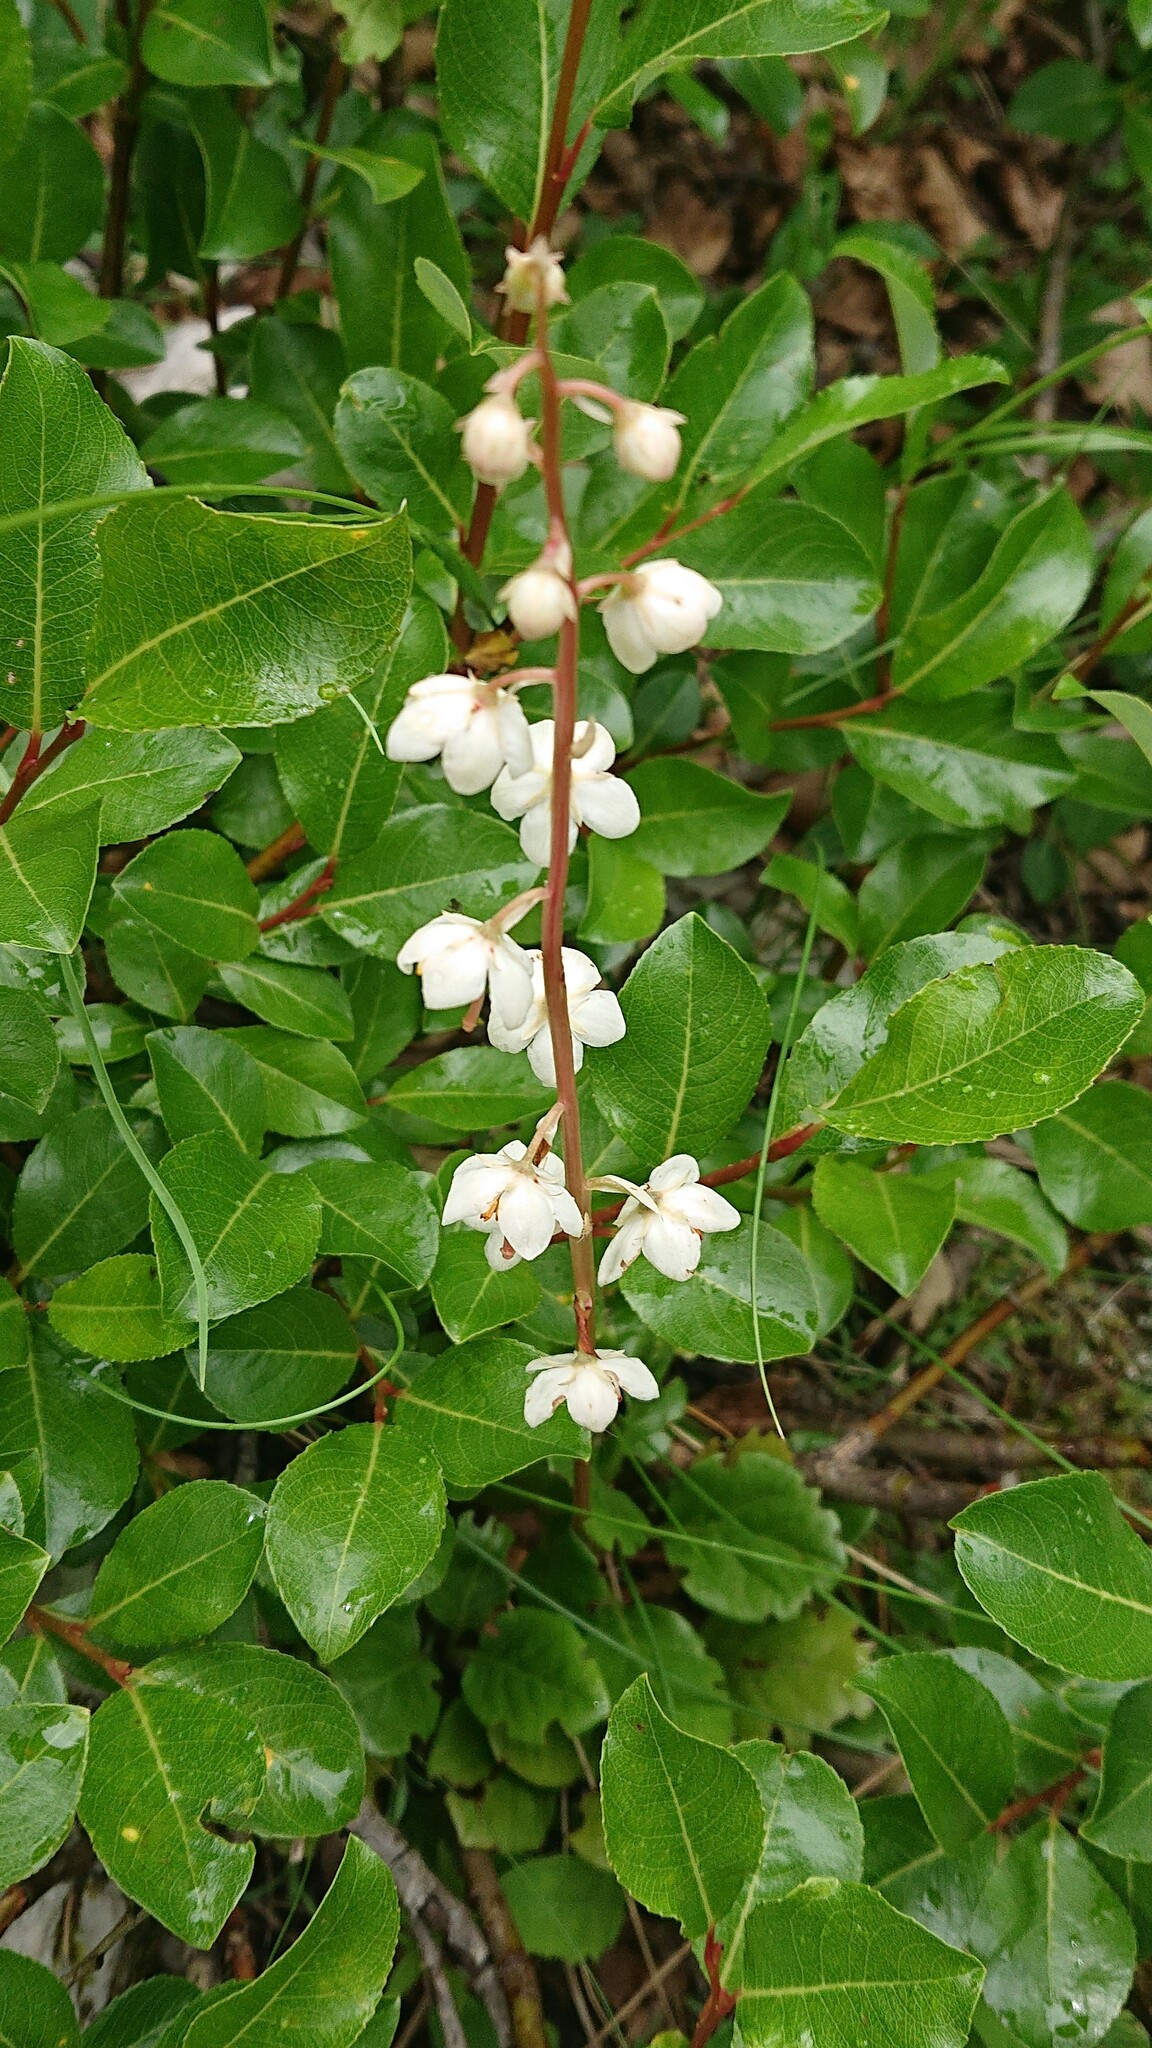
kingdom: Plantae
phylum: Tracheophyta
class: Magnoliopsida
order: Ericales
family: Ericaceae
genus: Pyrola
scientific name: Pyrola rotundifolia
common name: Round-leaved wintergreen
